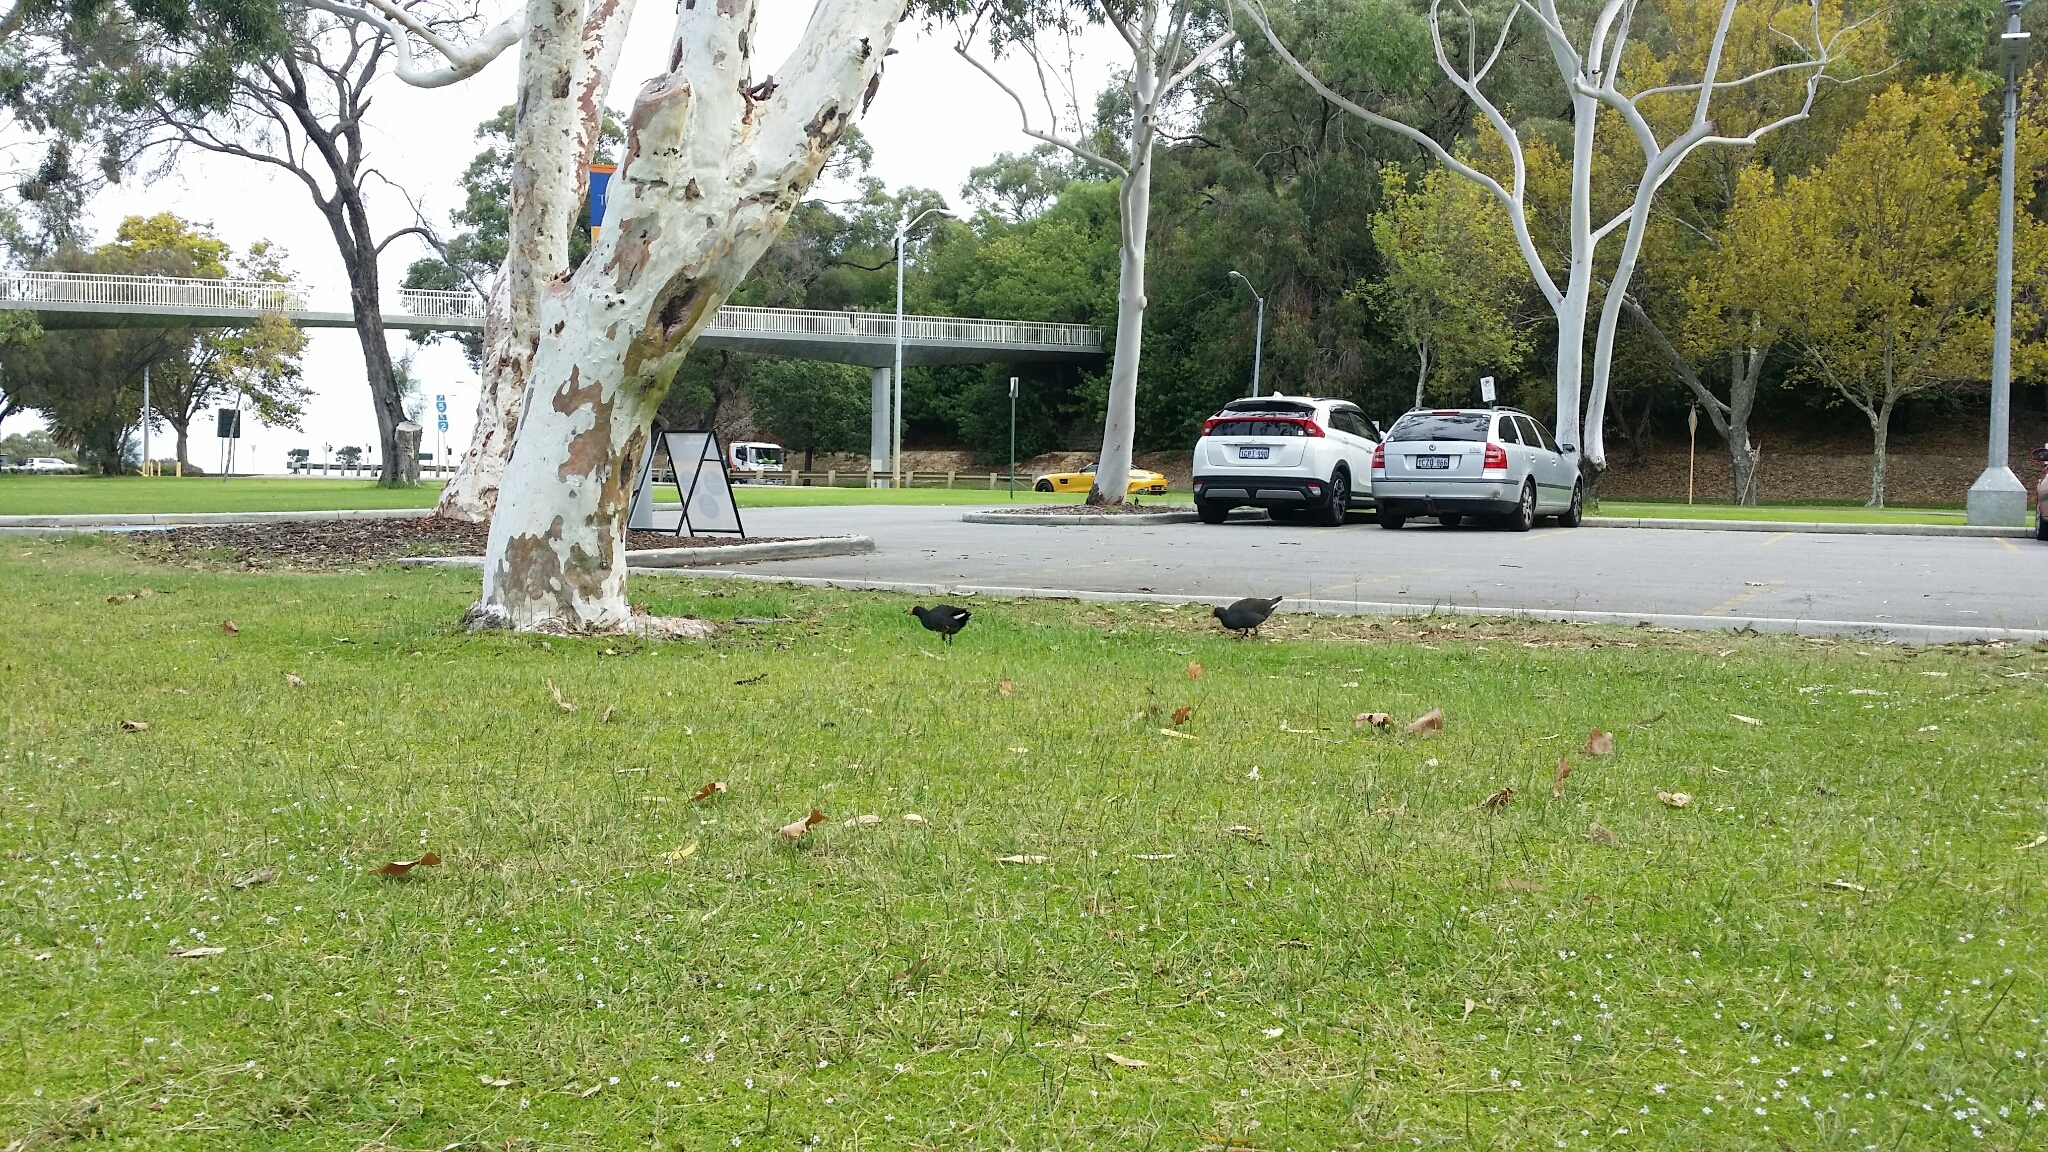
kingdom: Animalia
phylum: Chordata
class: Aves
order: Gruiformes
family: Rallidae
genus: Gallinula
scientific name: Gallinula tenebrosa
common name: Dusky moorhen
